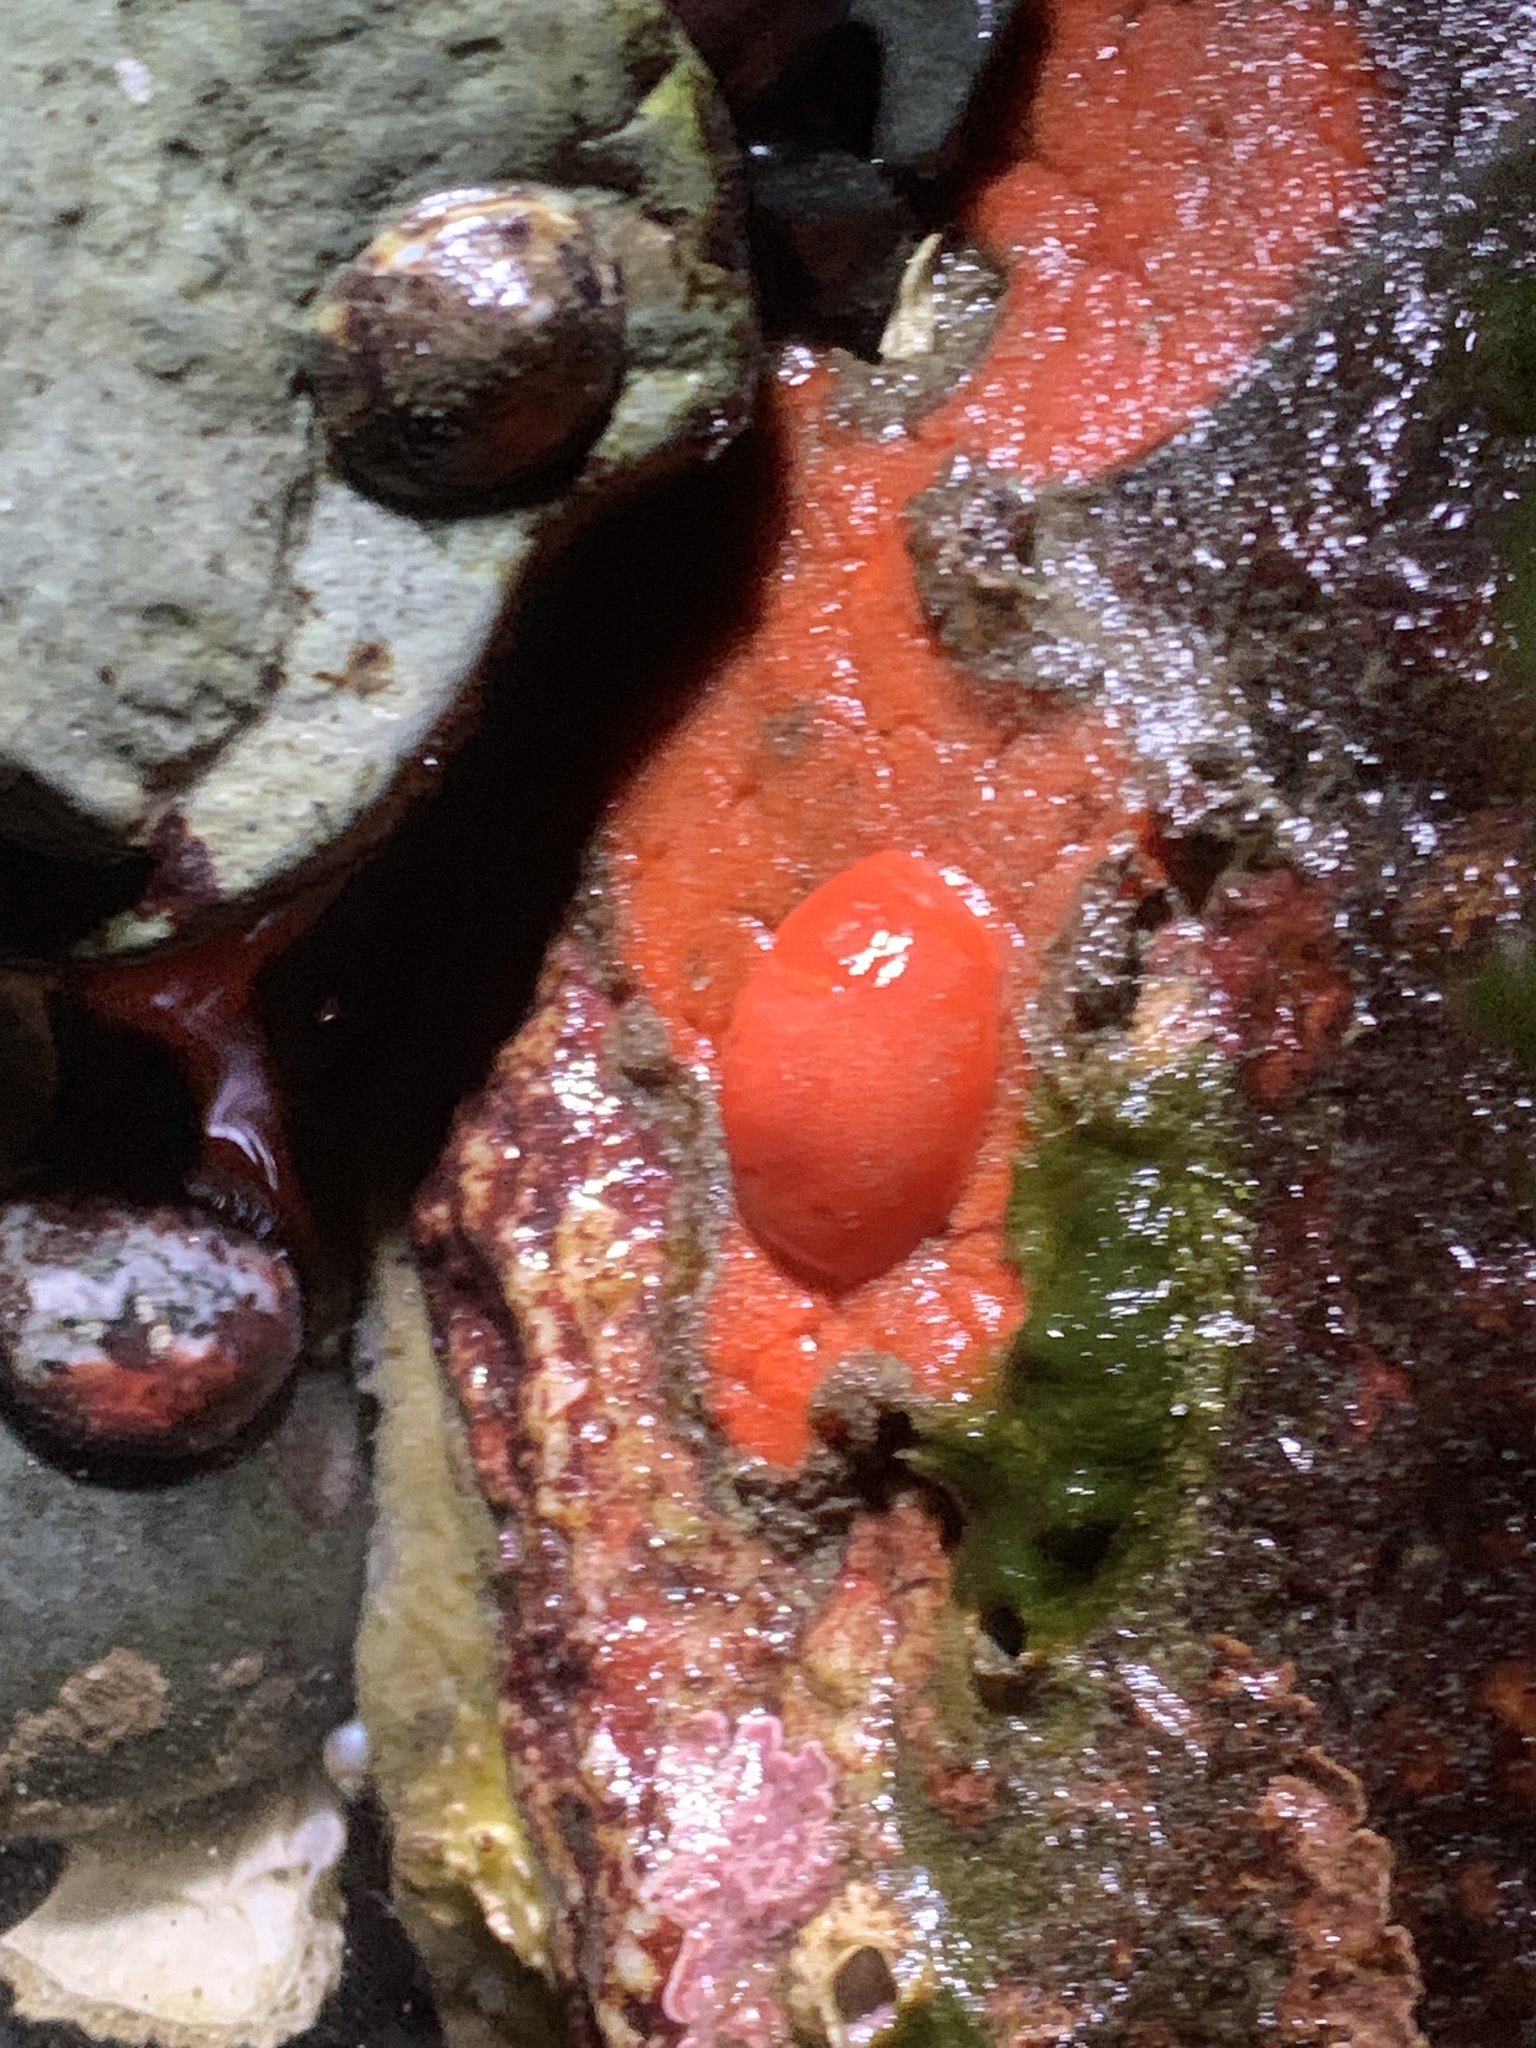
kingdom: Animalia
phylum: Mollusca
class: Gastropoda
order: Nudibranchia
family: Discodorididae
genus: Rostanga
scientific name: Rostanga pulchra
